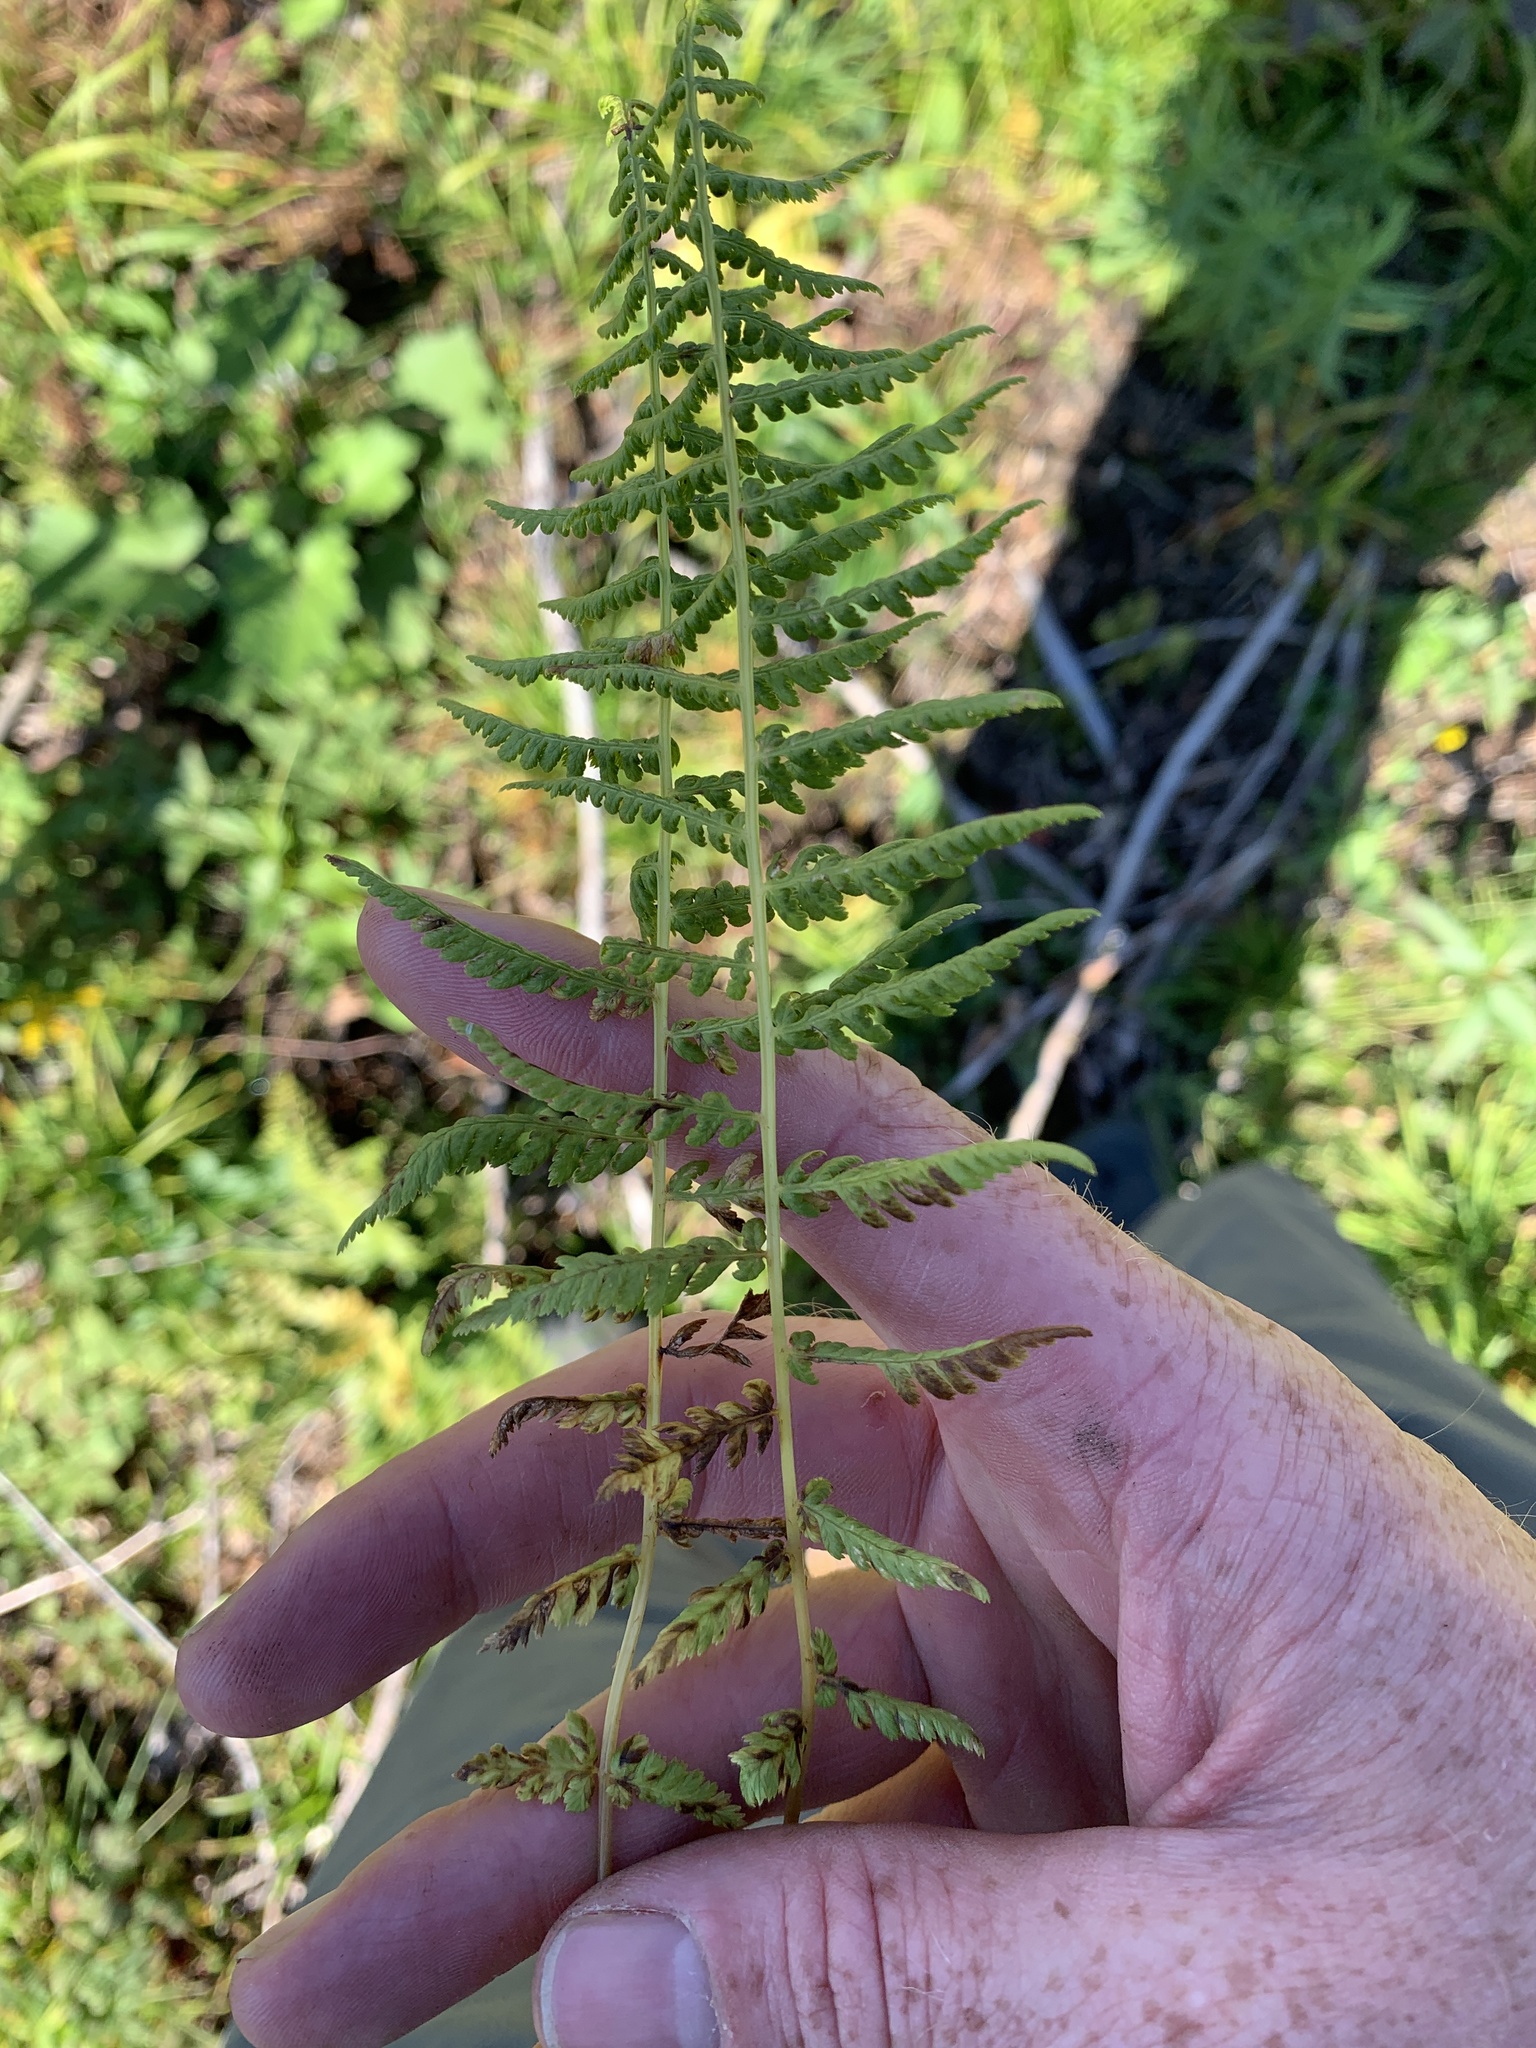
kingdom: Plantae
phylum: Tracheophyta
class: Polypodiopsida
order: Polypodiales
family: Athyriaceae
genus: Athyrium
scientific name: Athyrium angustum
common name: Northern lady fern
